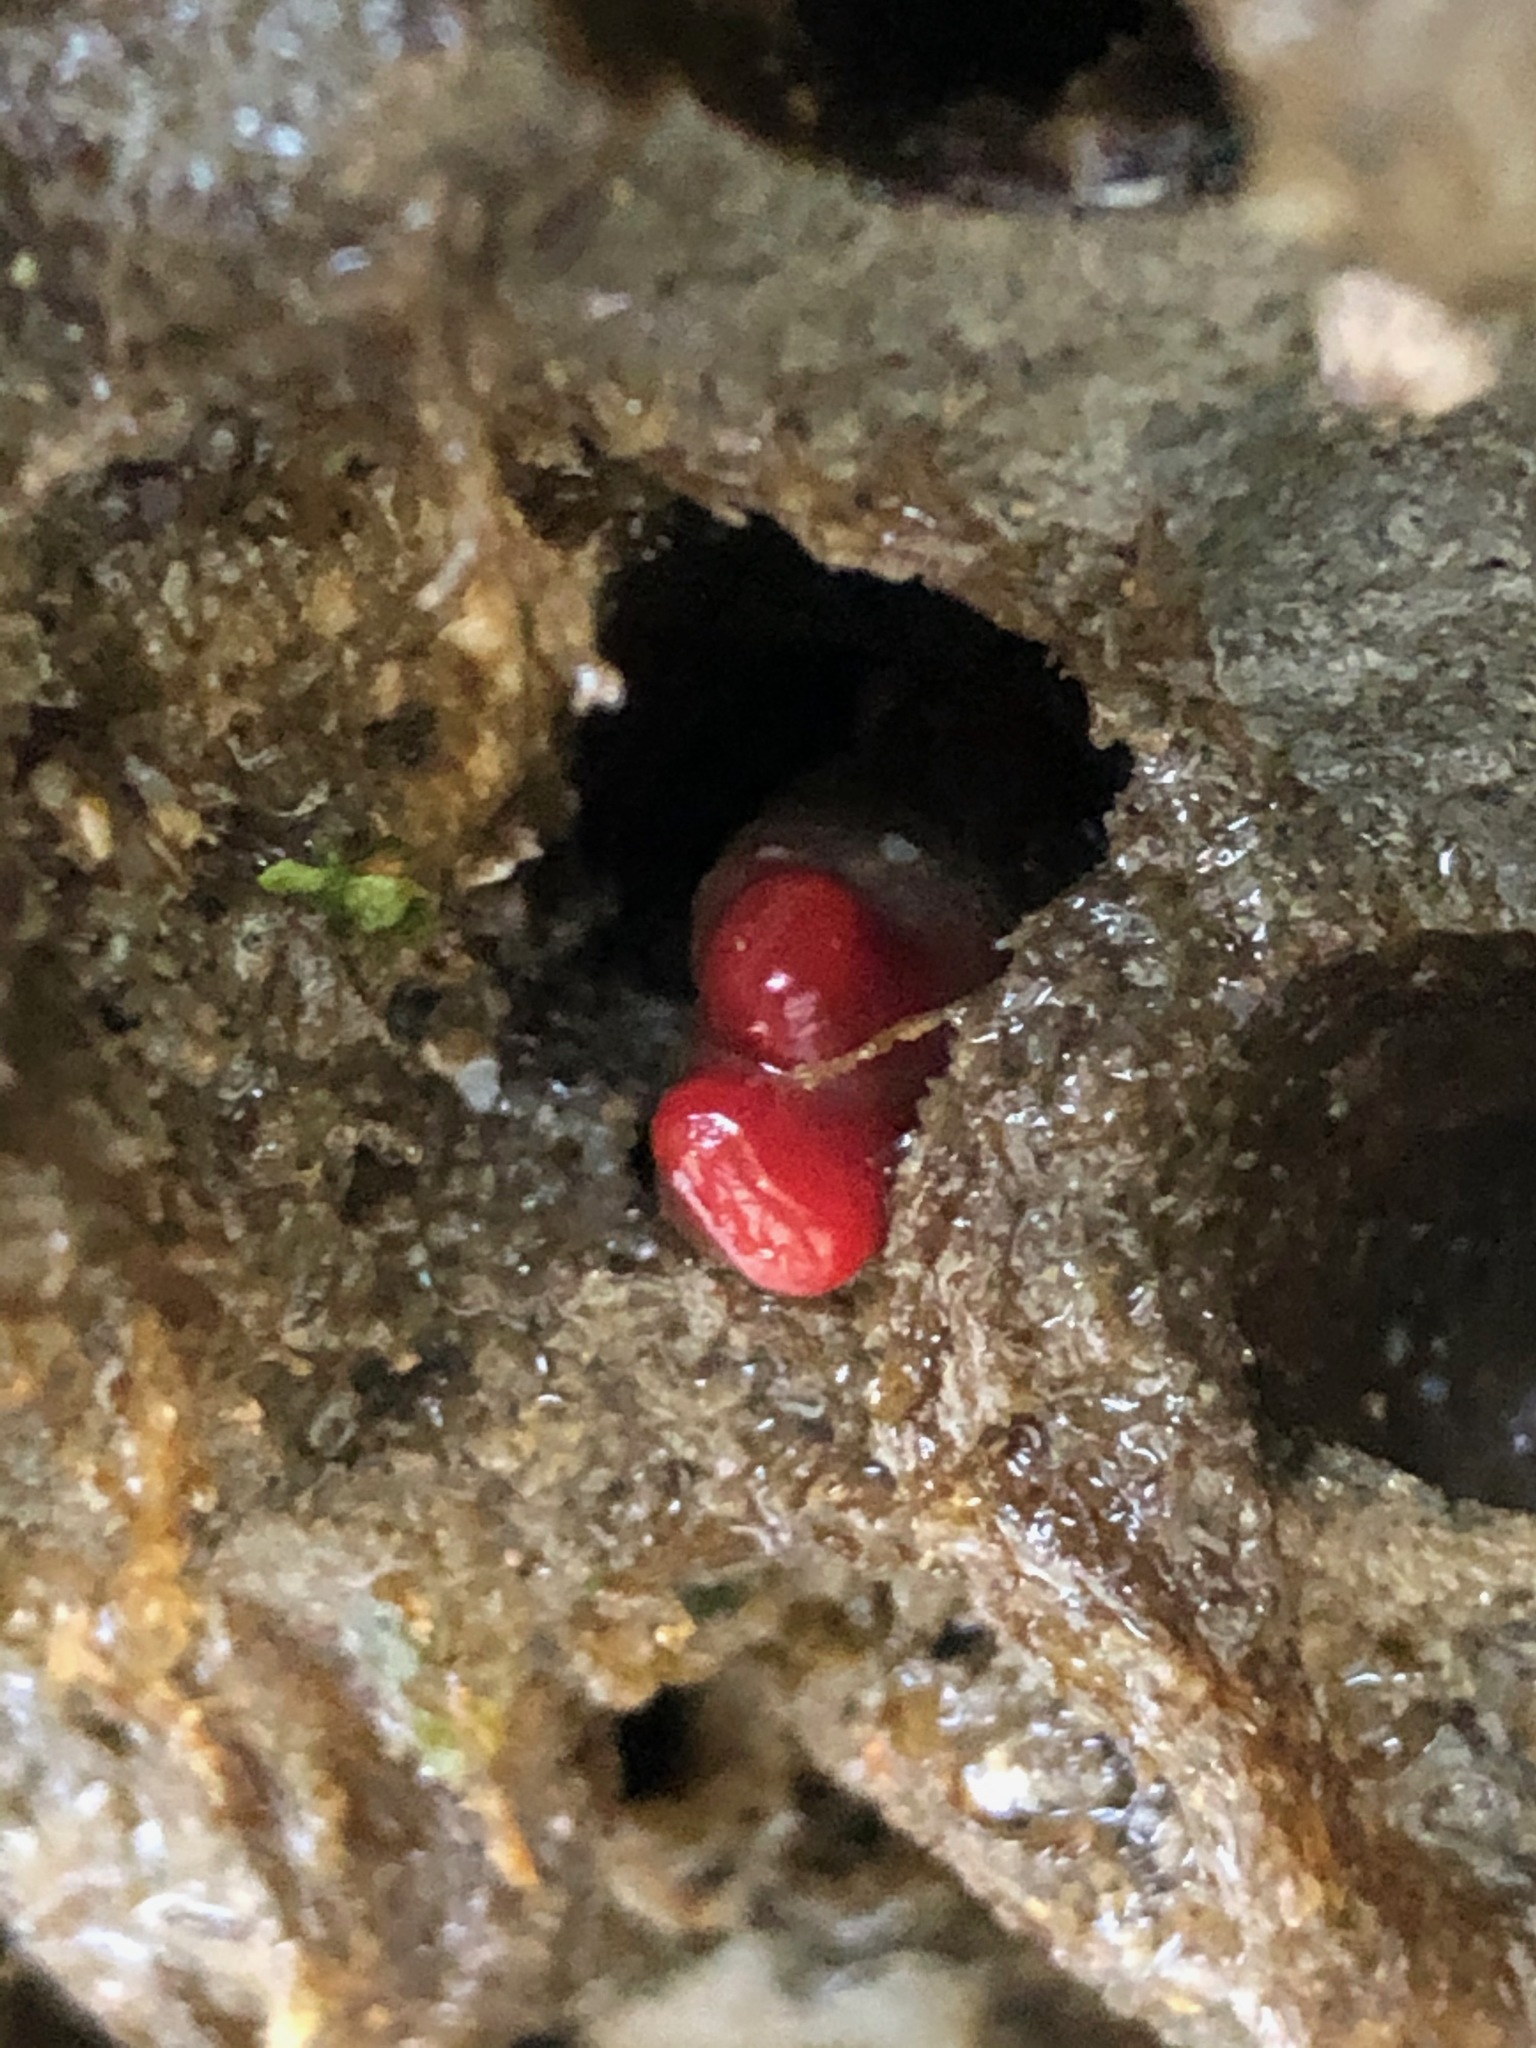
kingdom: Animalia
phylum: Mollusca
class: Bivalvia
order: Adapedonta
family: Hiatellidae
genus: Hiatella
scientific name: Hiatella arctica
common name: Arctic hiatella
